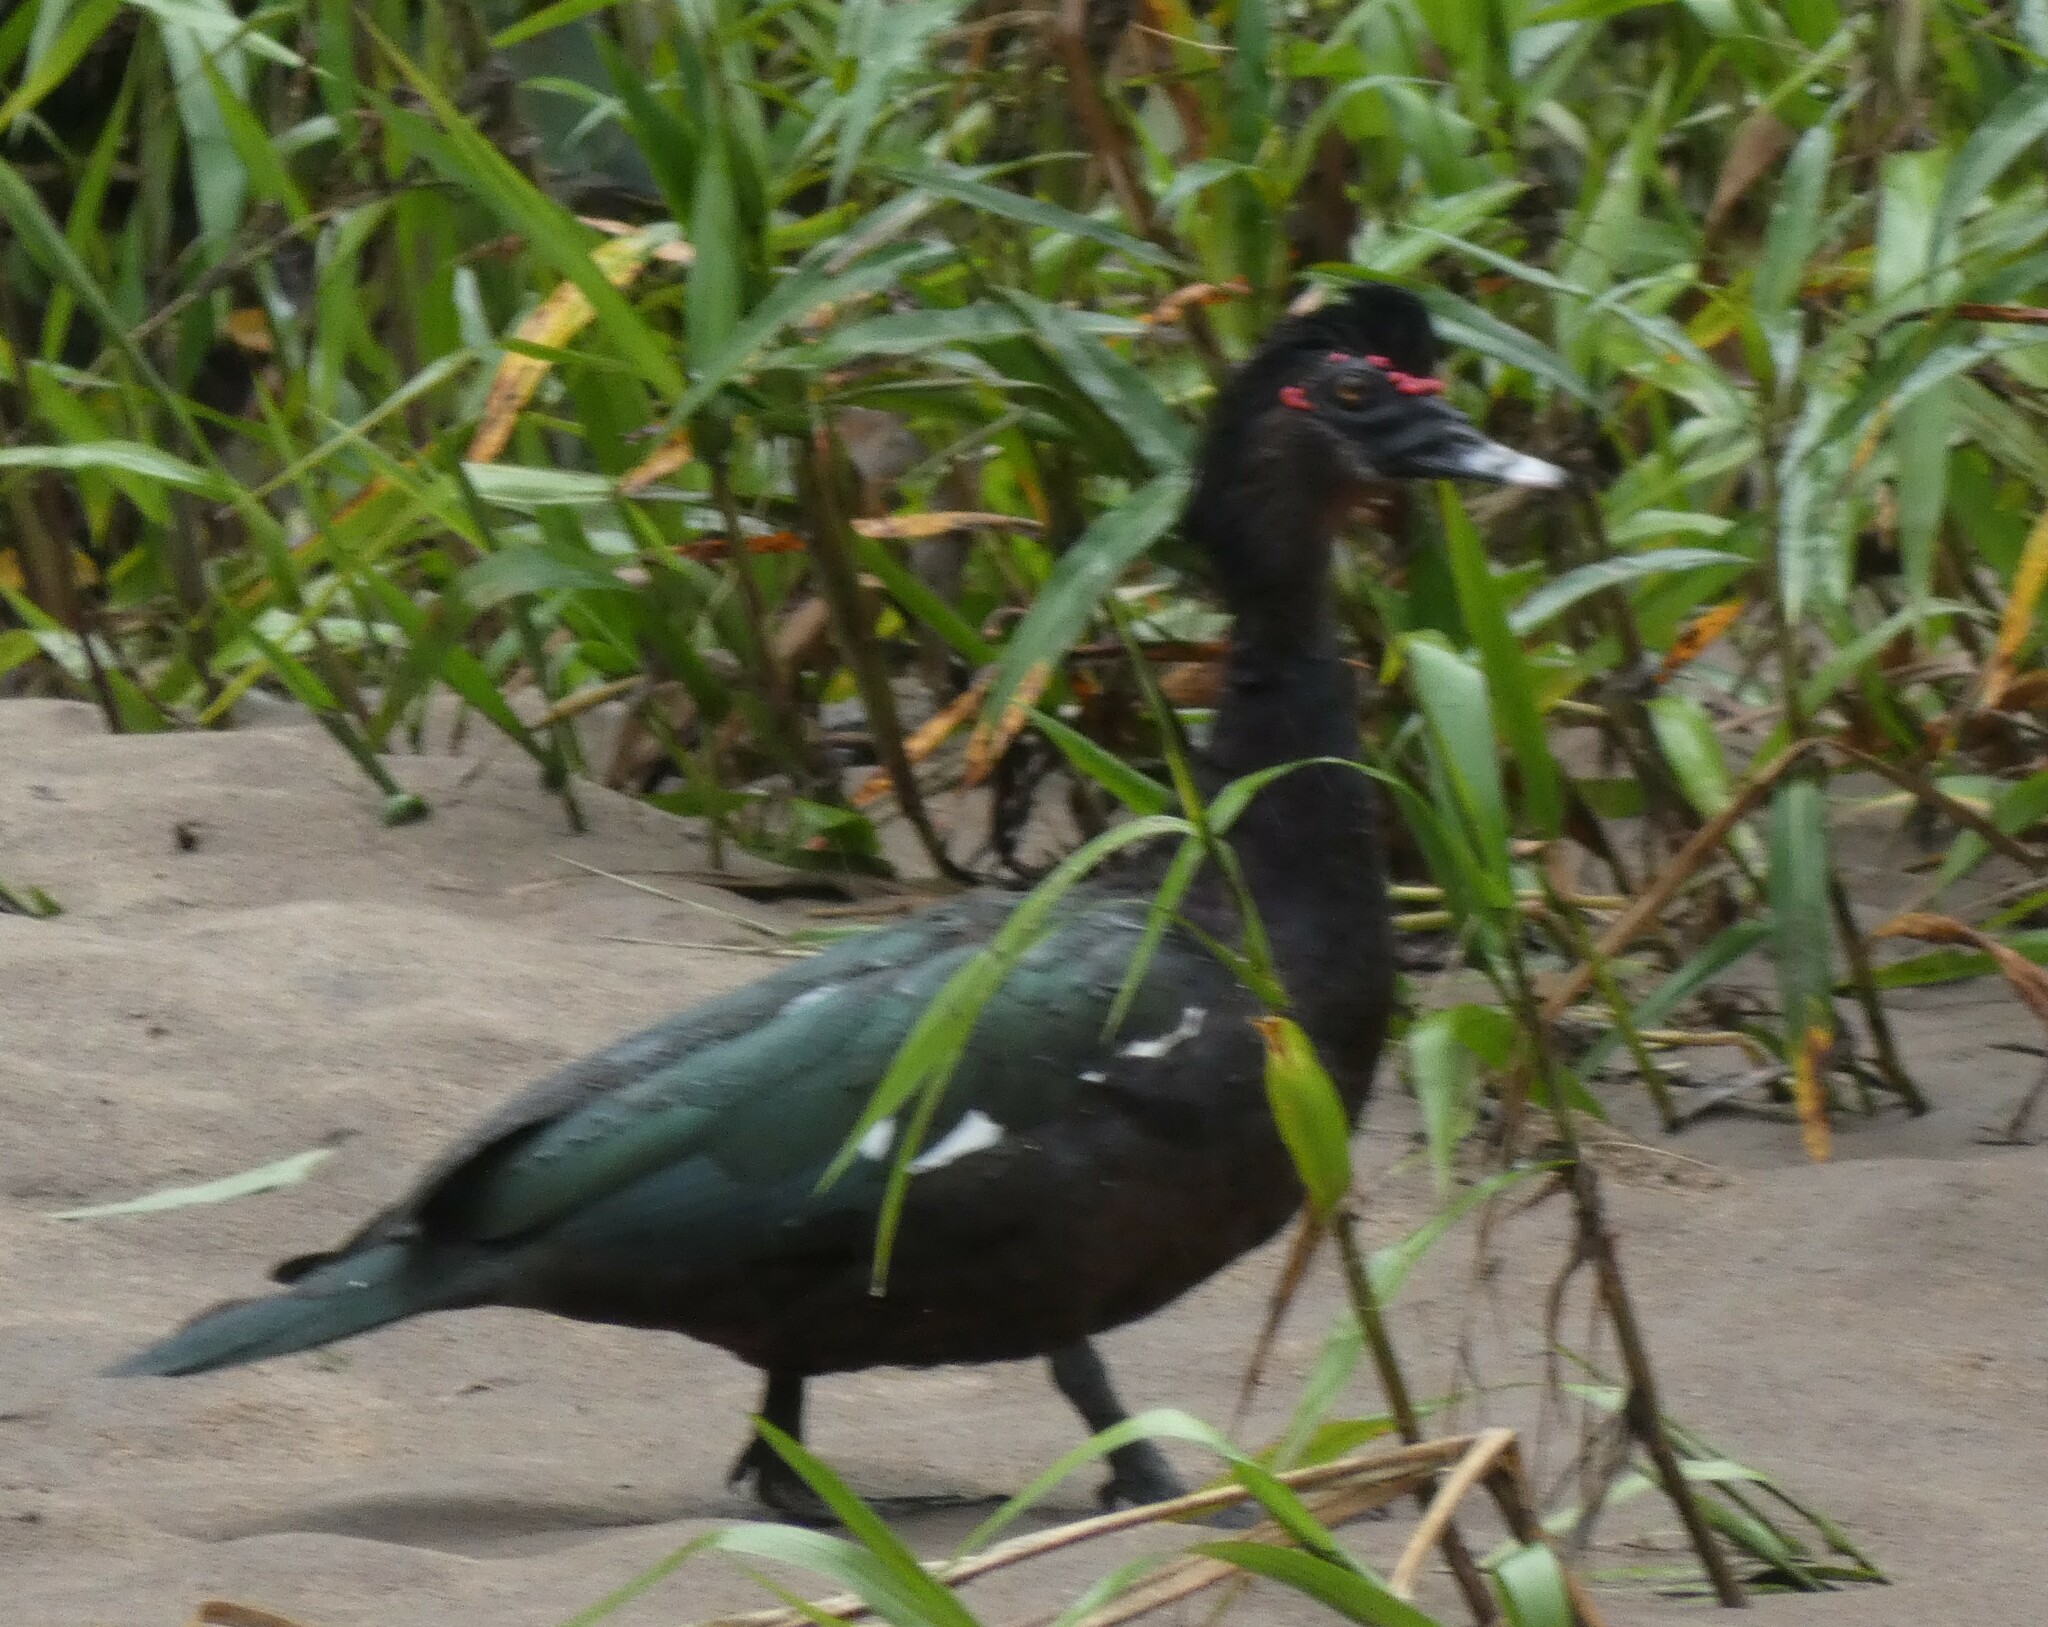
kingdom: Animalia
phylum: Chordata
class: Aves
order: Anseriformes
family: Anatidae
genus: Cairina
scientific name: Cairina moschata
